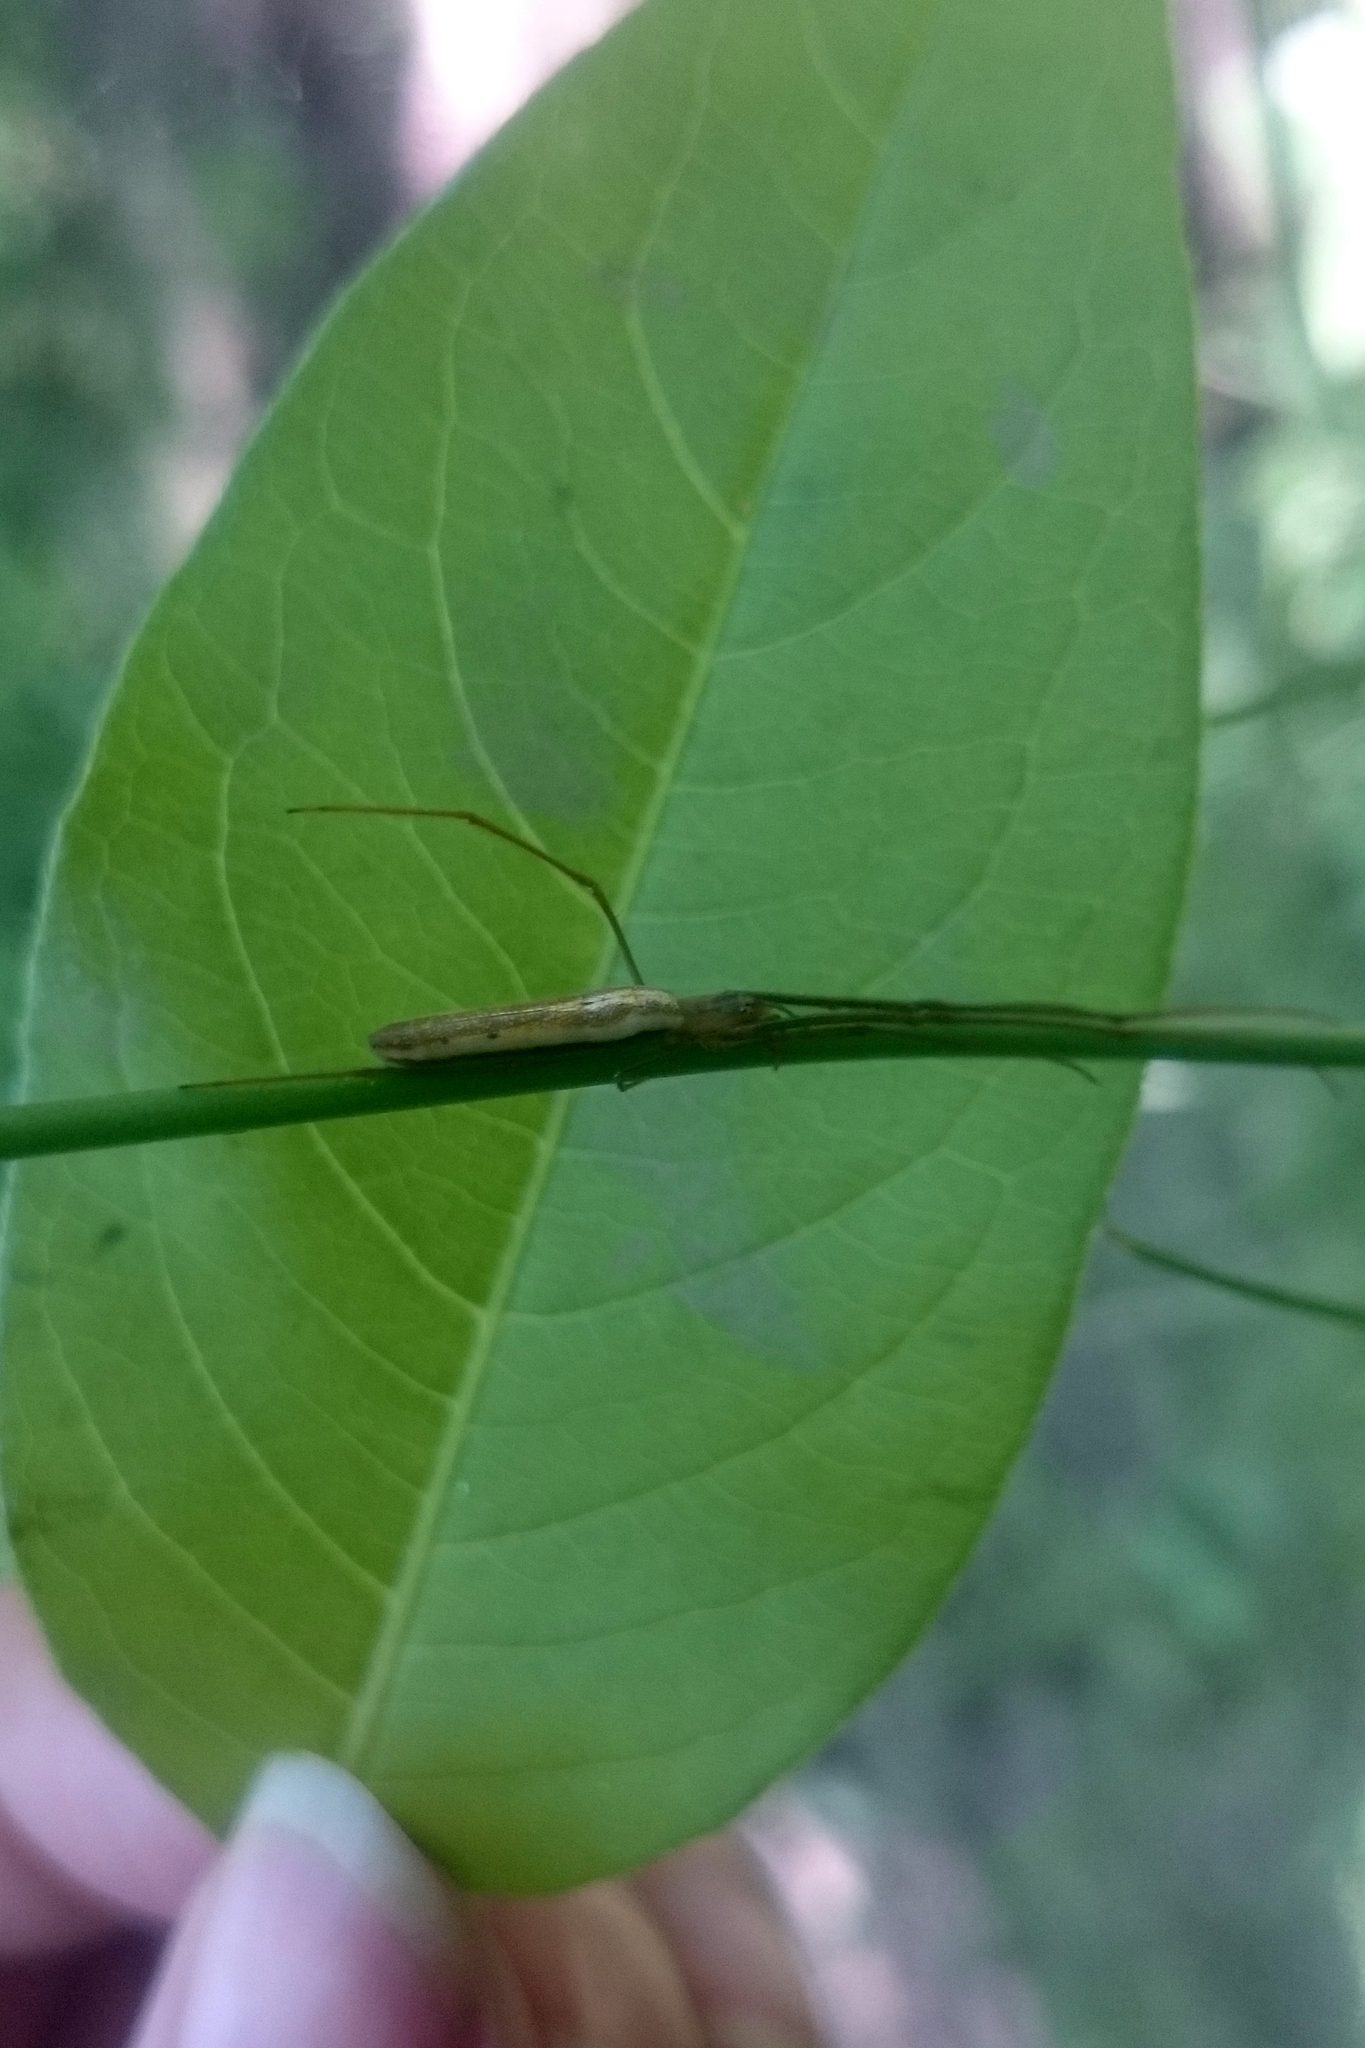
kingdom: Animalia
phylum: Arthropoda
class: Arachnida
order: Araneae
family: Tetragnathidae
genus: Tetragnatha
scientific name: Tetragnatha straminea
